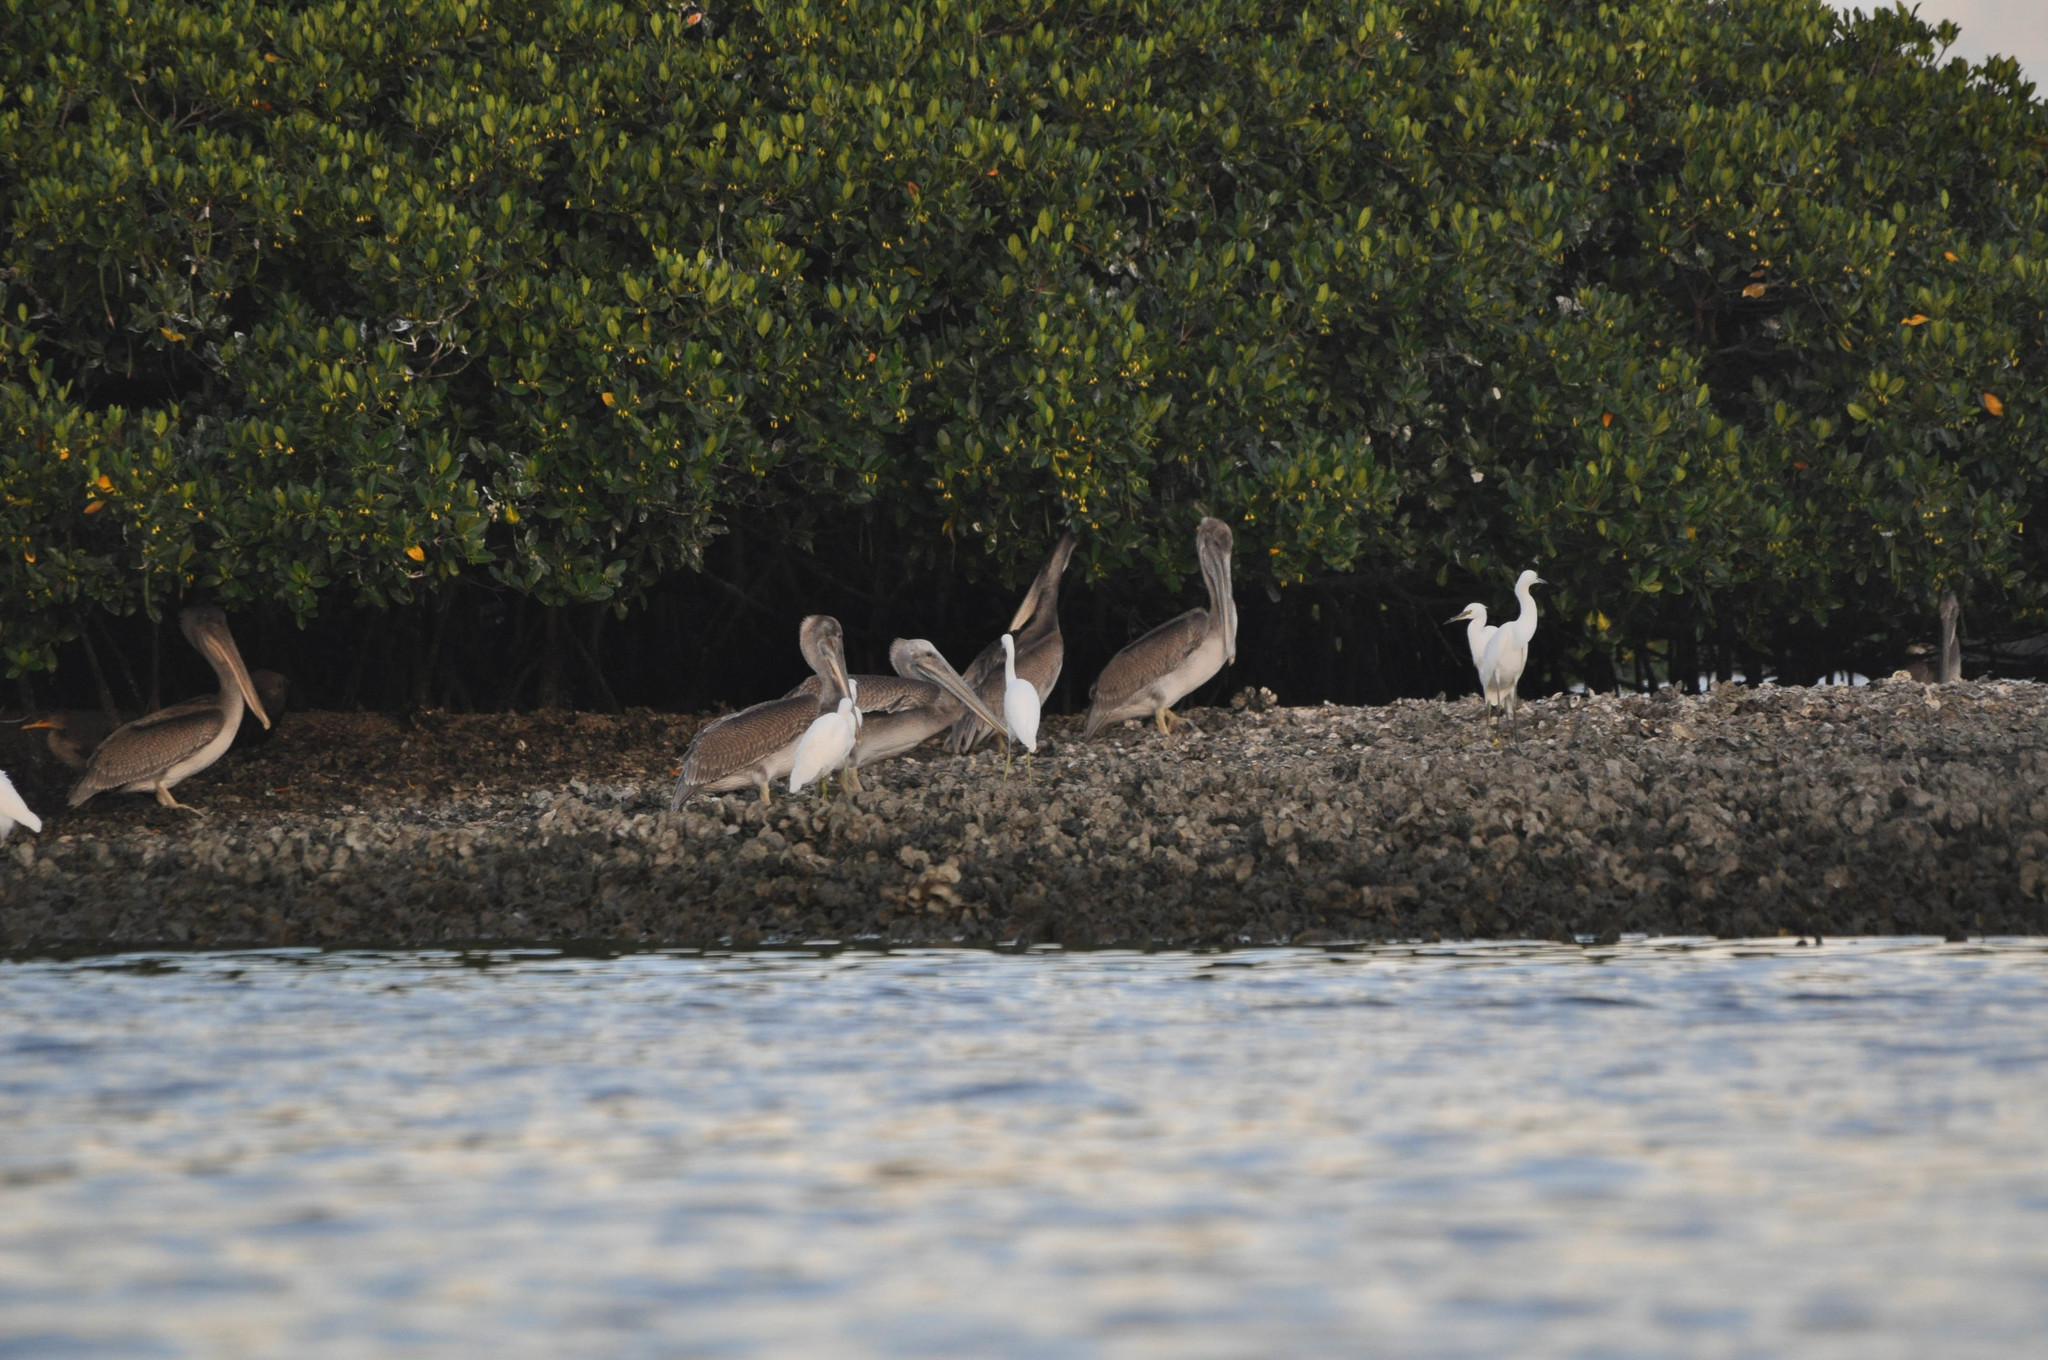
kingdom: Animalia
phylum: Chordata
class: Aves
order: Pelecaniformes
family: Ardeidae
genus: Egretta
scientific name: Egretta caerulea
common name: Little blue heron
